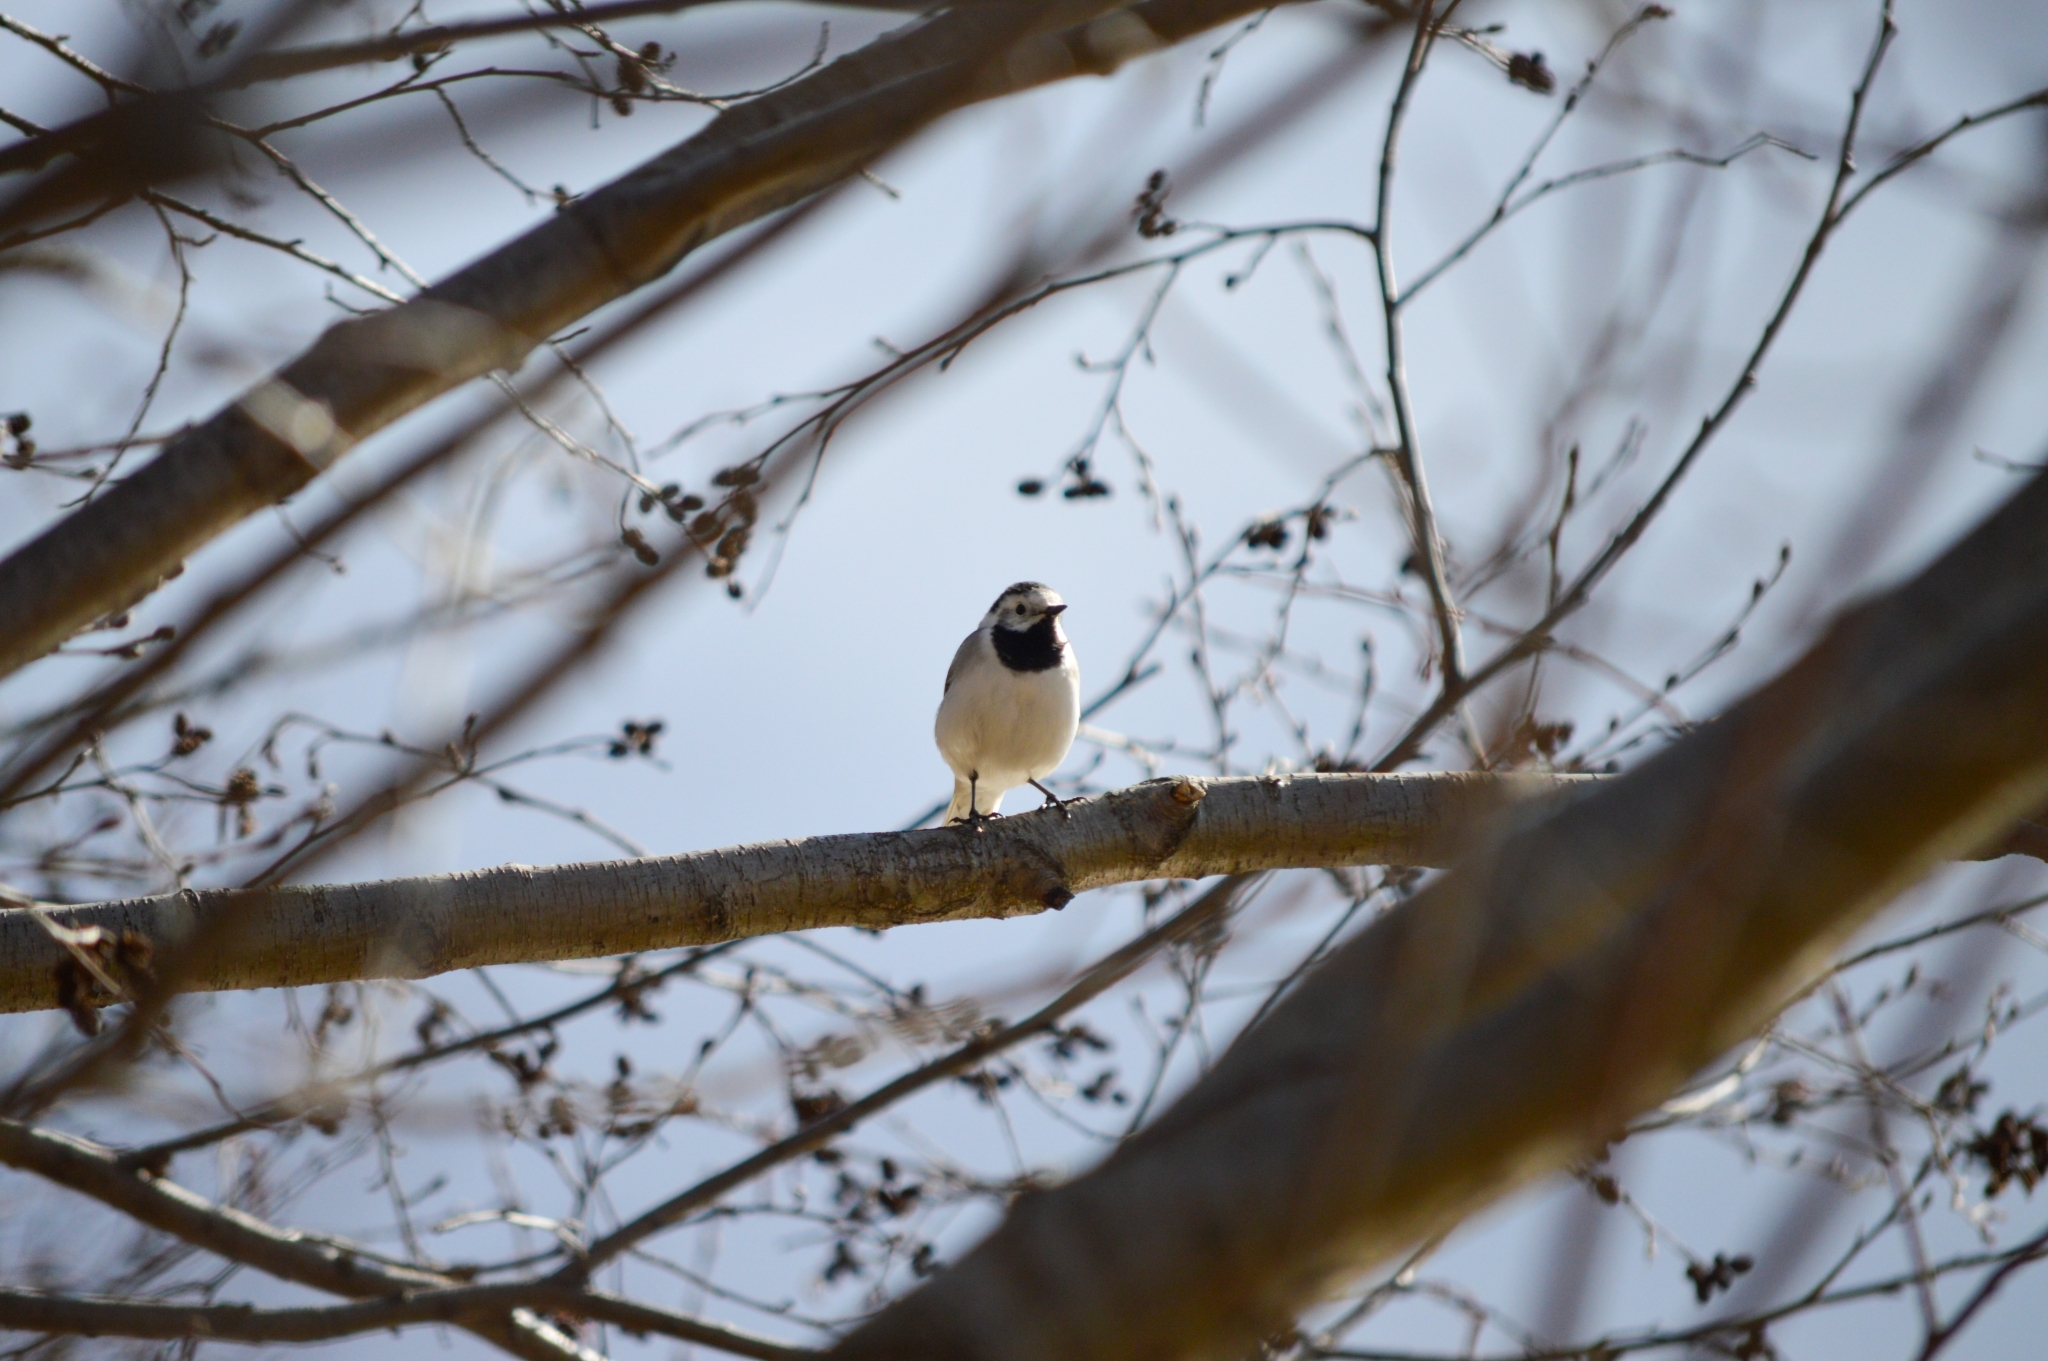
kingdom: Animalia
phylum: Chordata
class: Aves
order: Passeriformes
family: Motacillidae
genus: Motacilla
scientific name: Motacilla alba
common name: White wagtail
